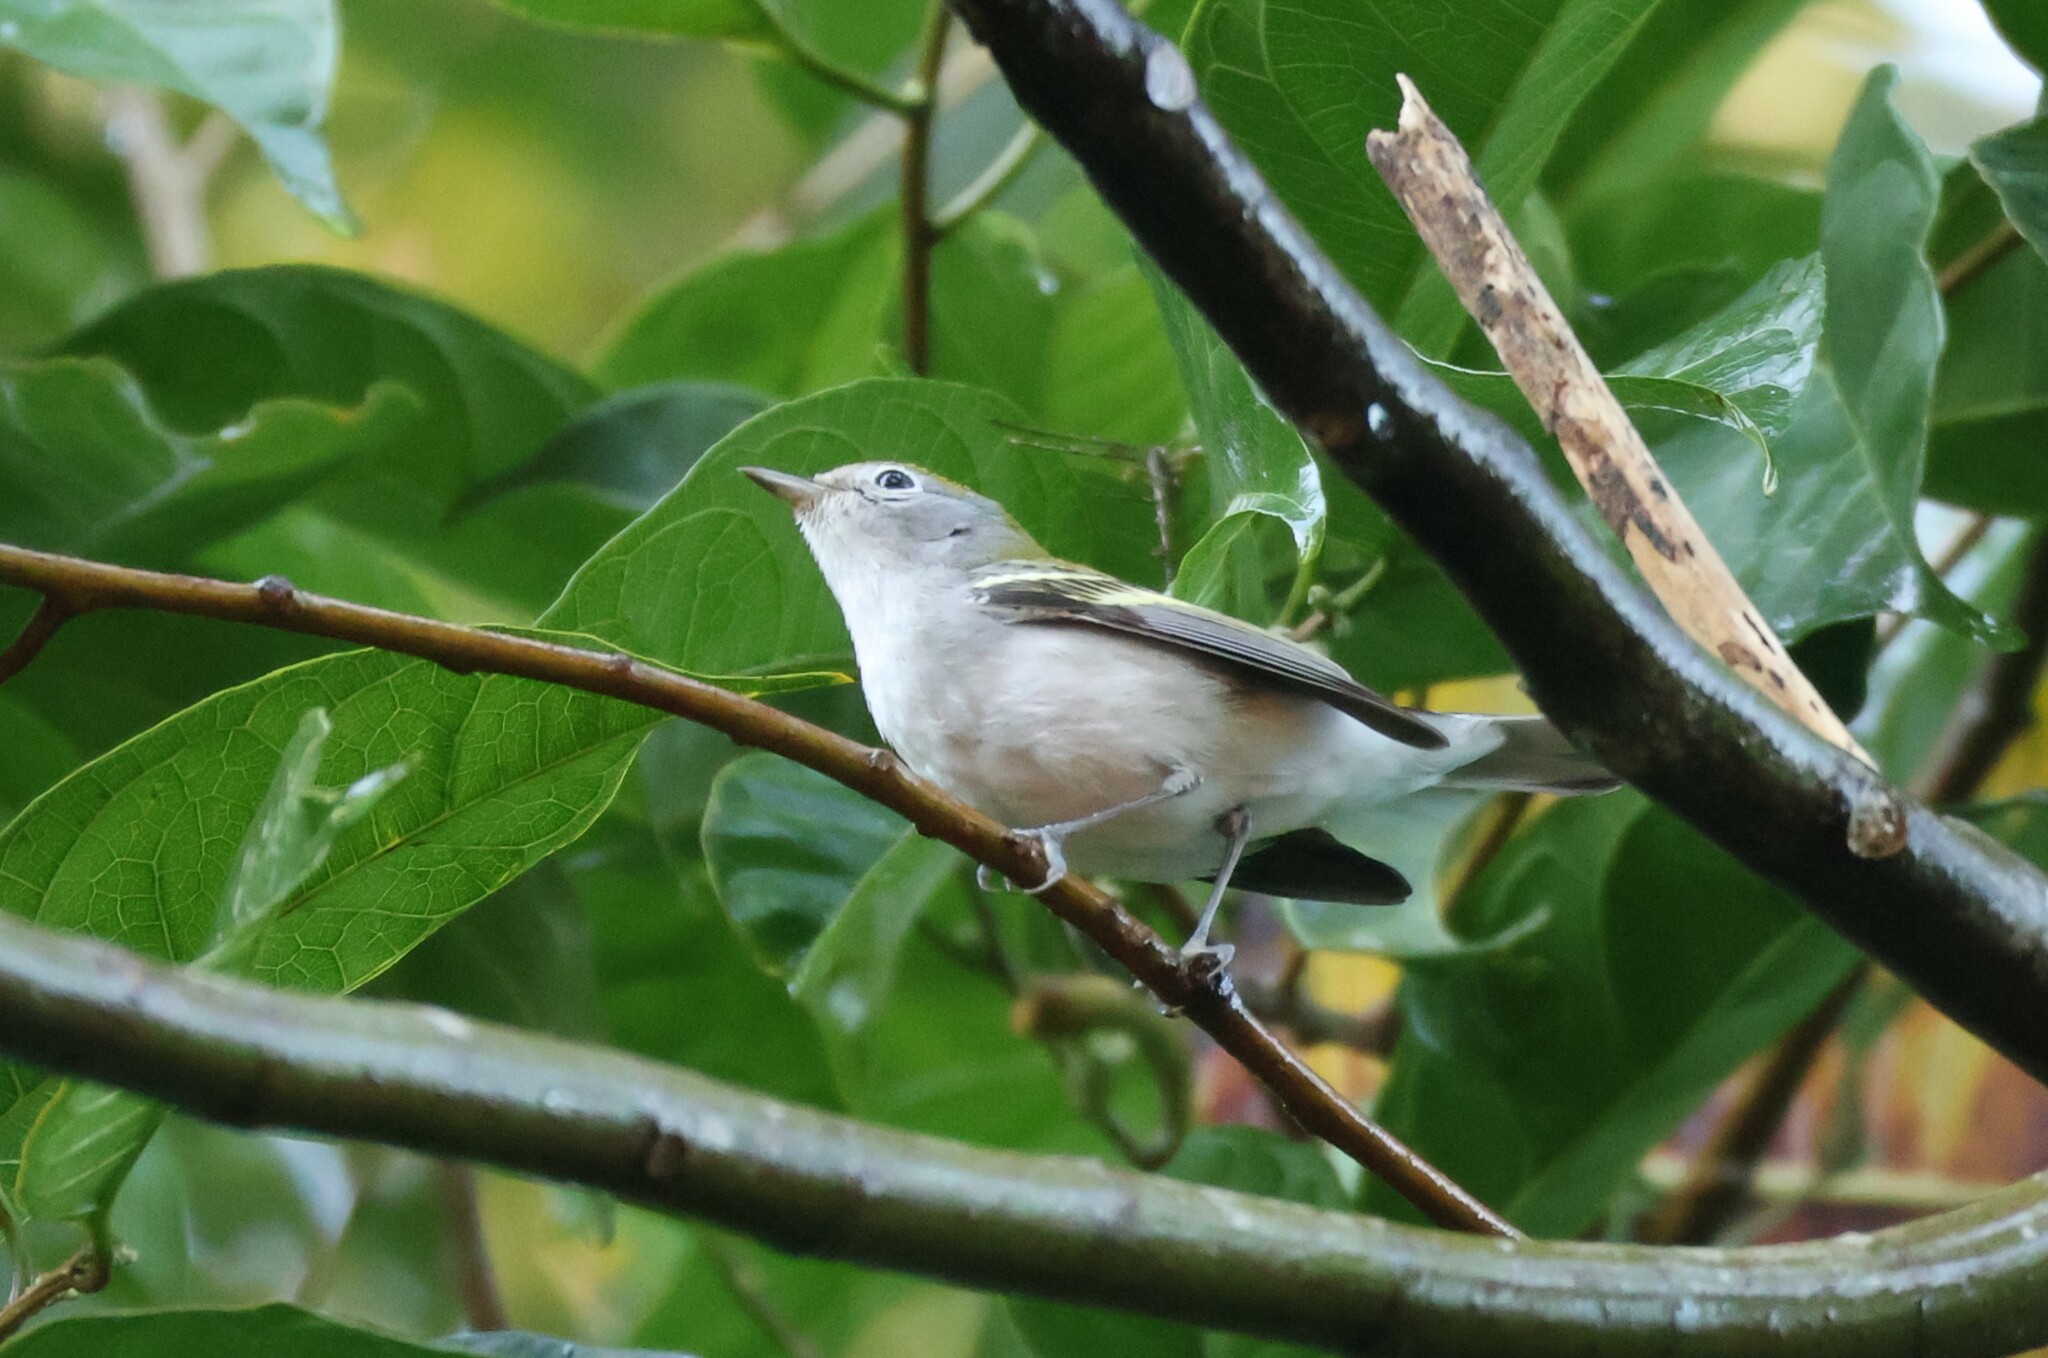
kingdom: Animalia
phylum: Chordata
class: Aves
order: Passeriformes
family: Parulidae
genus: Setophaga
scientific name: Setophaga pensylvanica
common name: Chestnut-sided warbler
